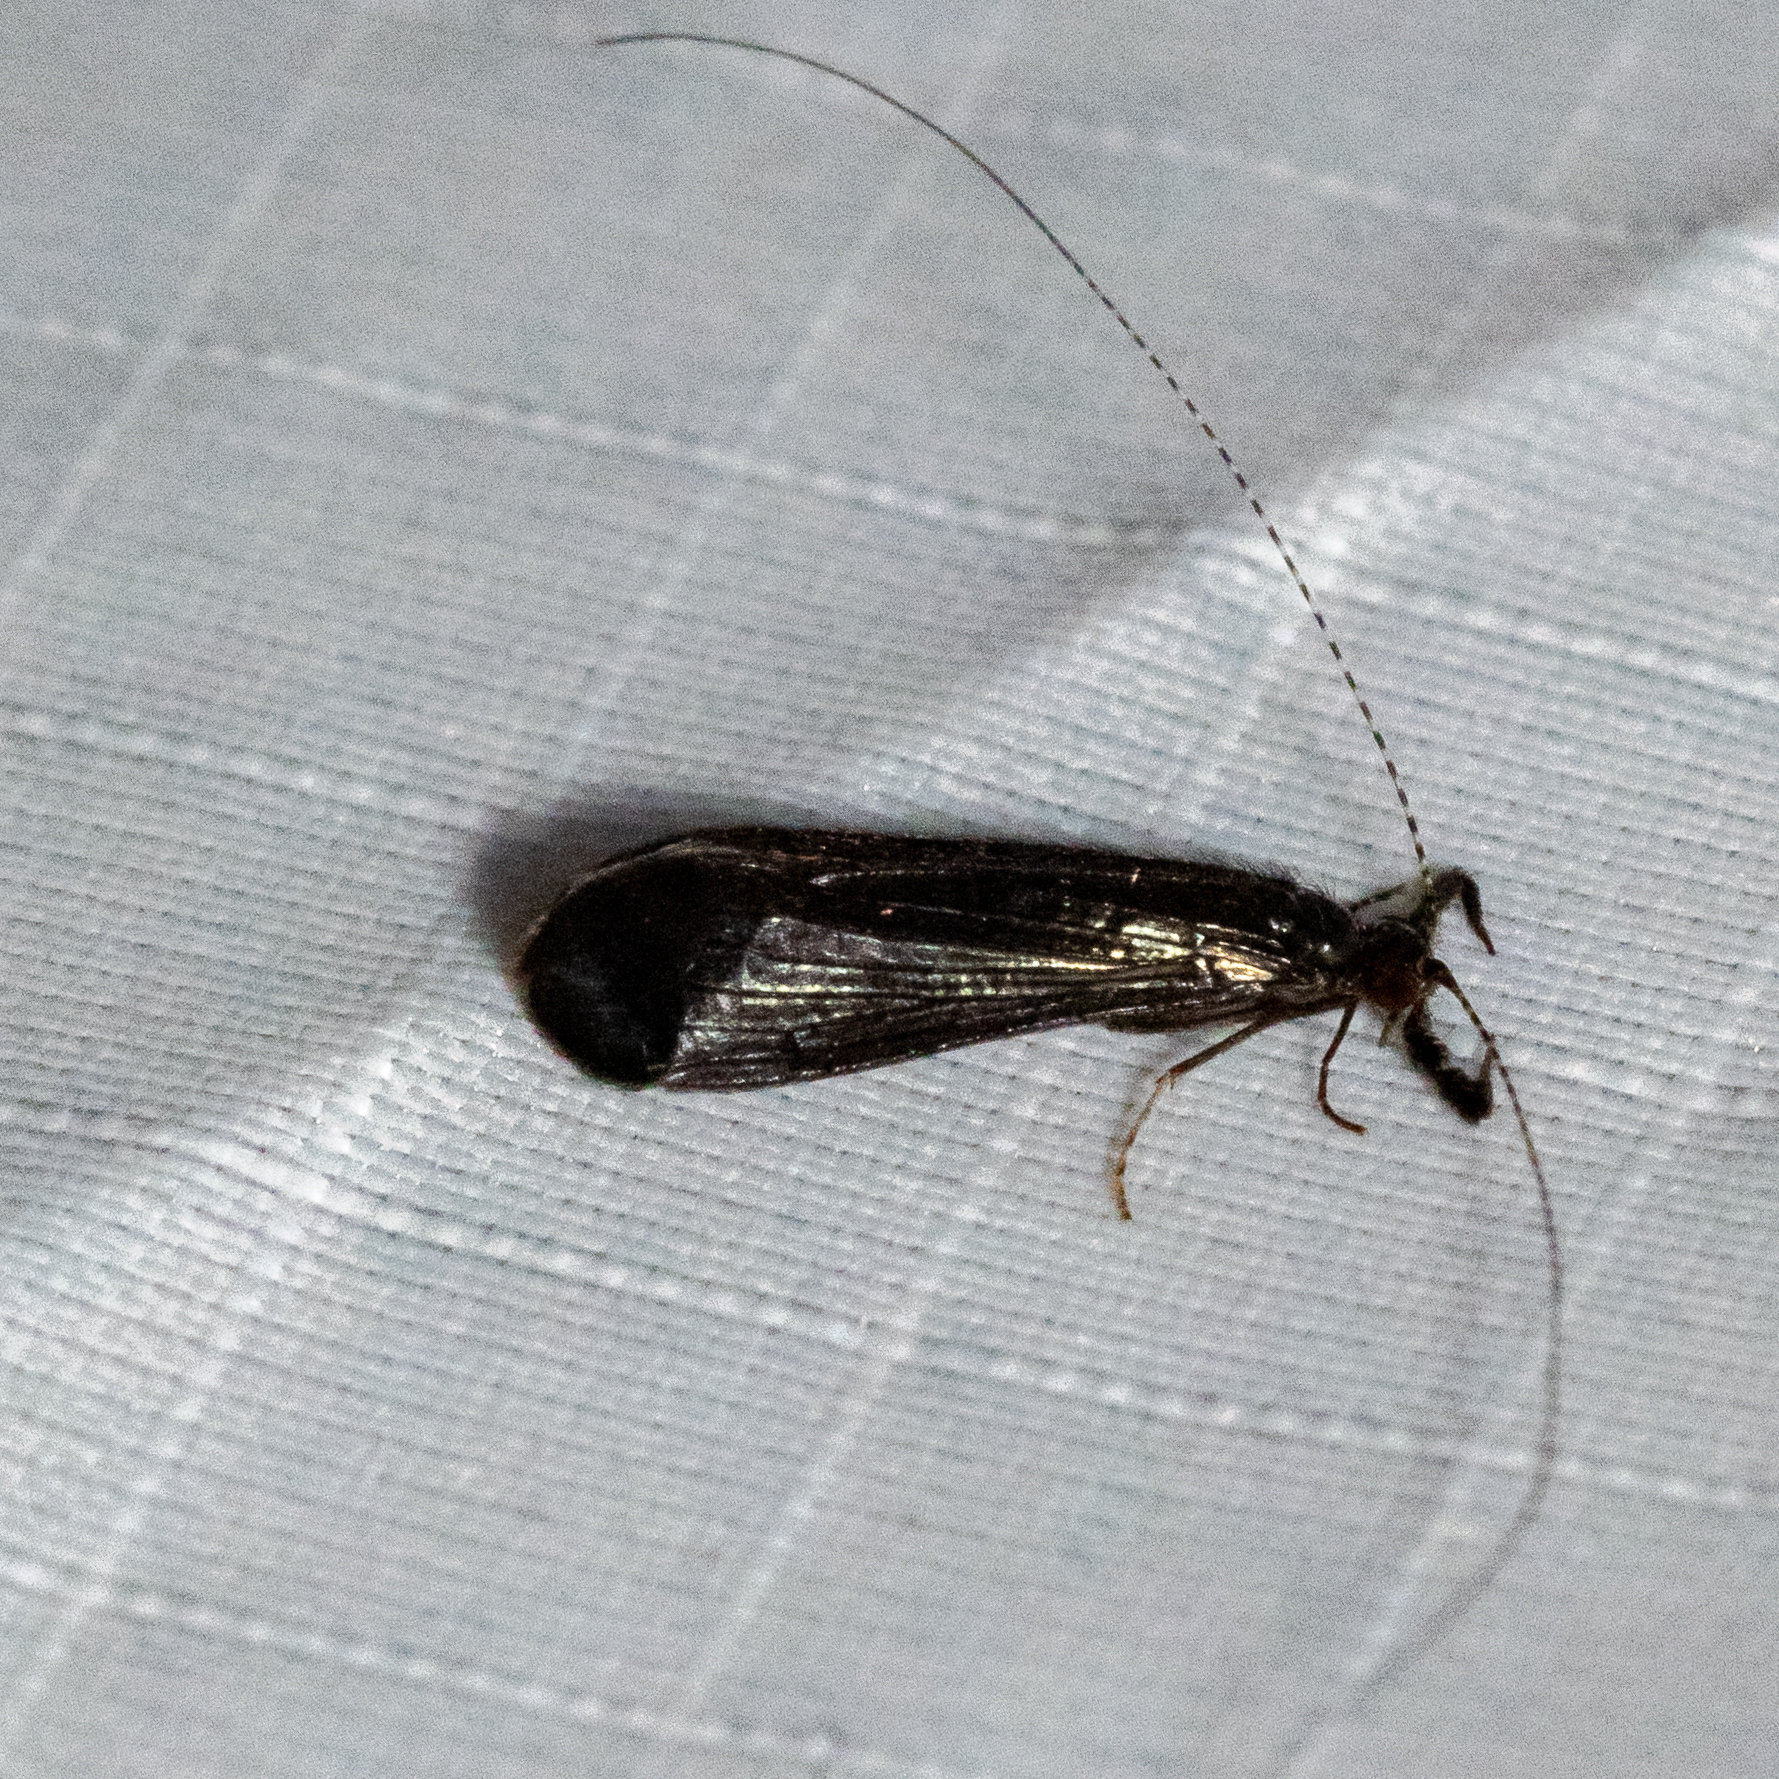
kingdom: Animalia
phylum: Arthropoda
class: Insecta
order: Trichoptera
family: Leptoceridae
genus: Mystacides
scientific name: Mystacides sepulchralis
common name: Black dancer caddisfly
